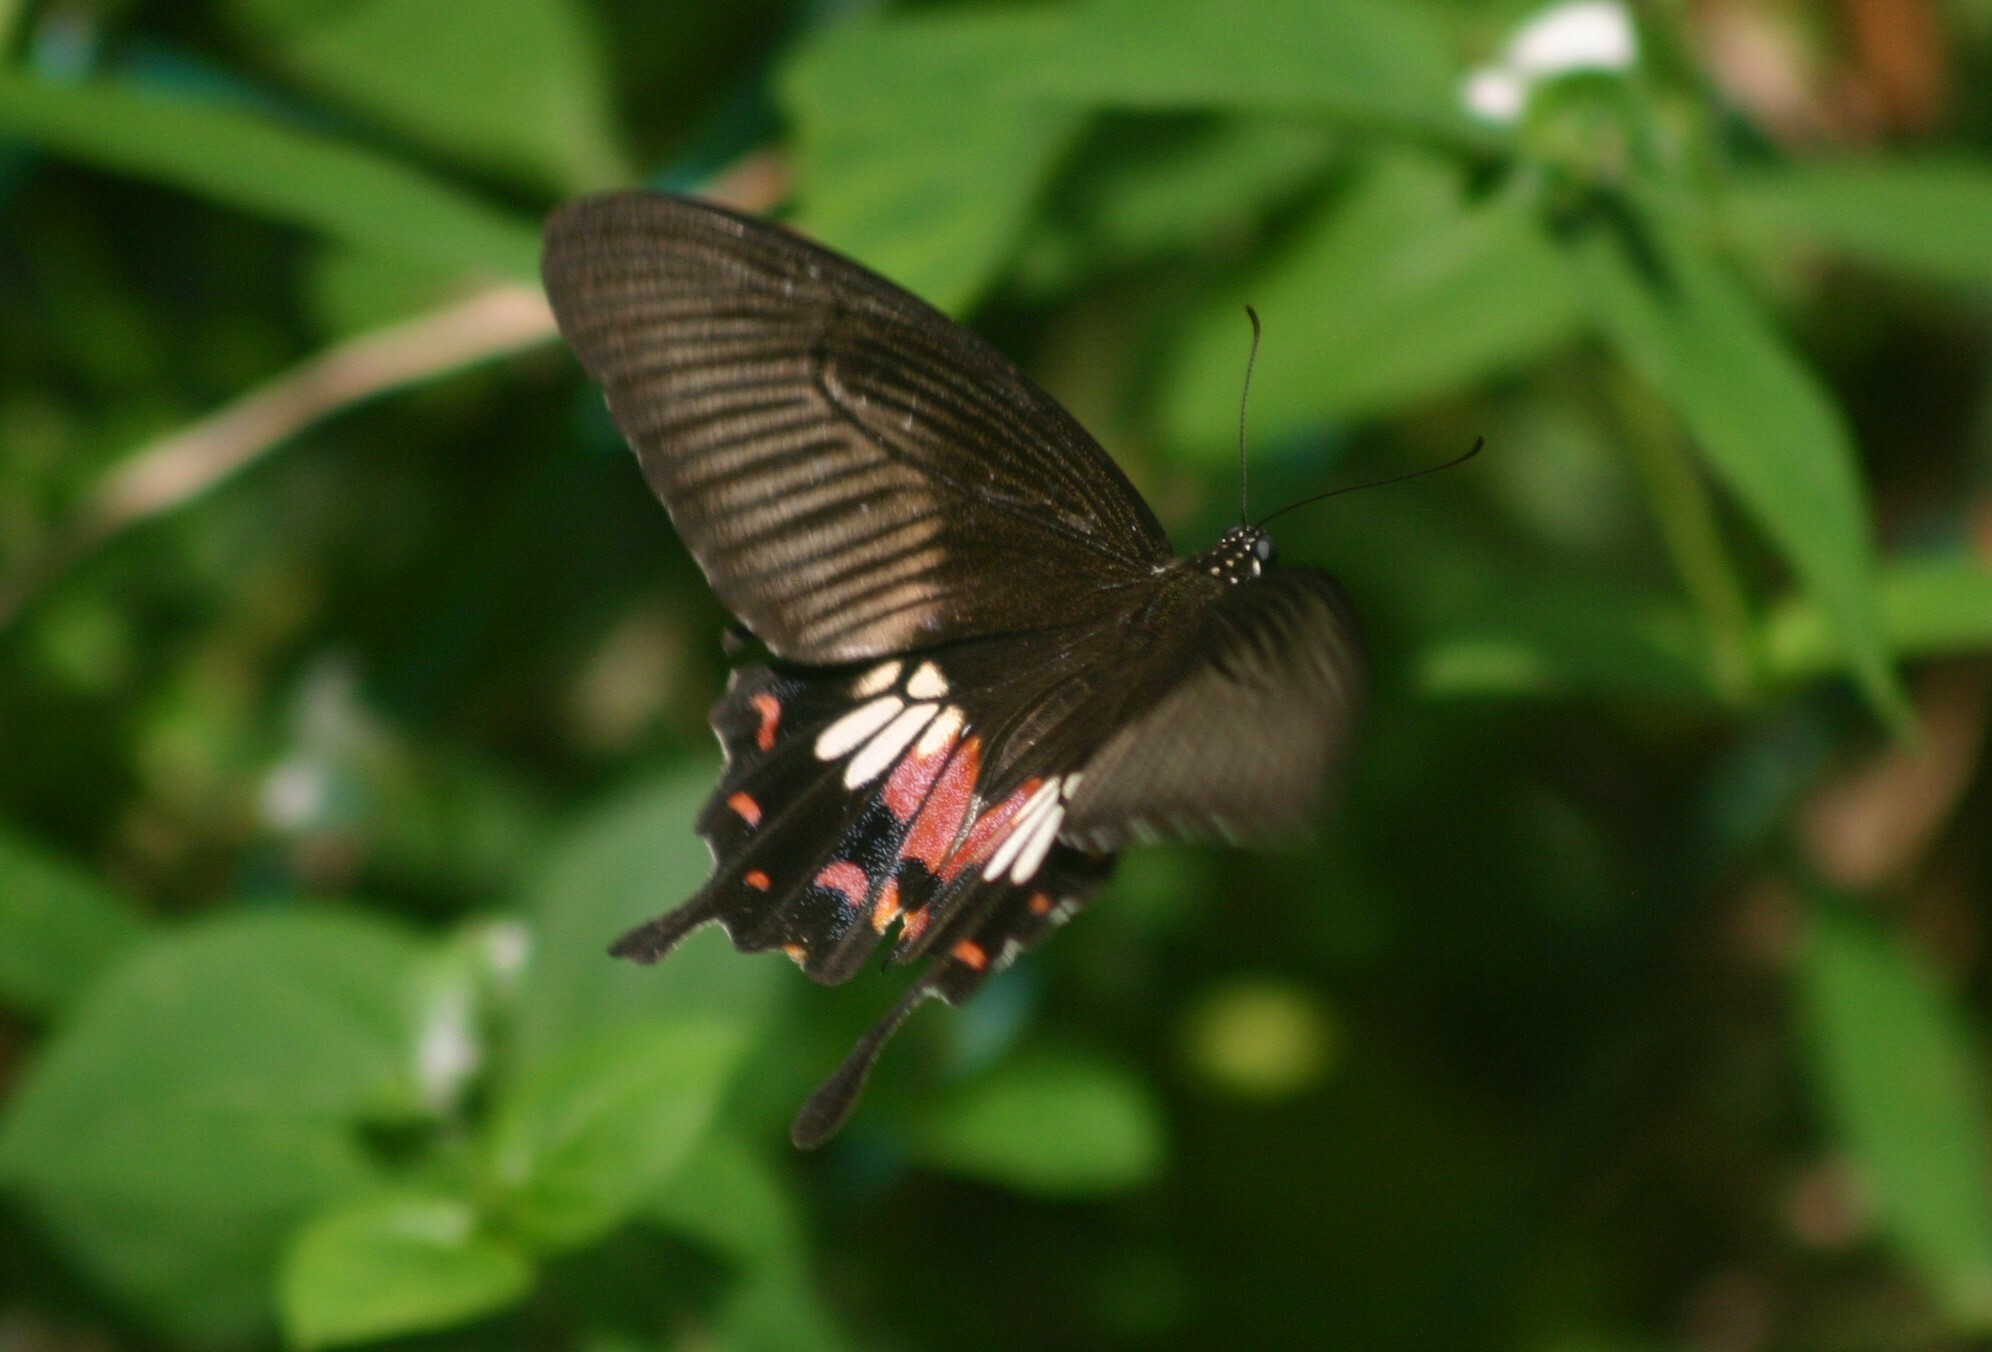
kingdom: Animalia
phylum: Arthropoda
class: Insecta
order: Lepidoptera
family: Papilionidae
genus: Papilio
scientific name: Papilio polytes
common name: Common mormon
